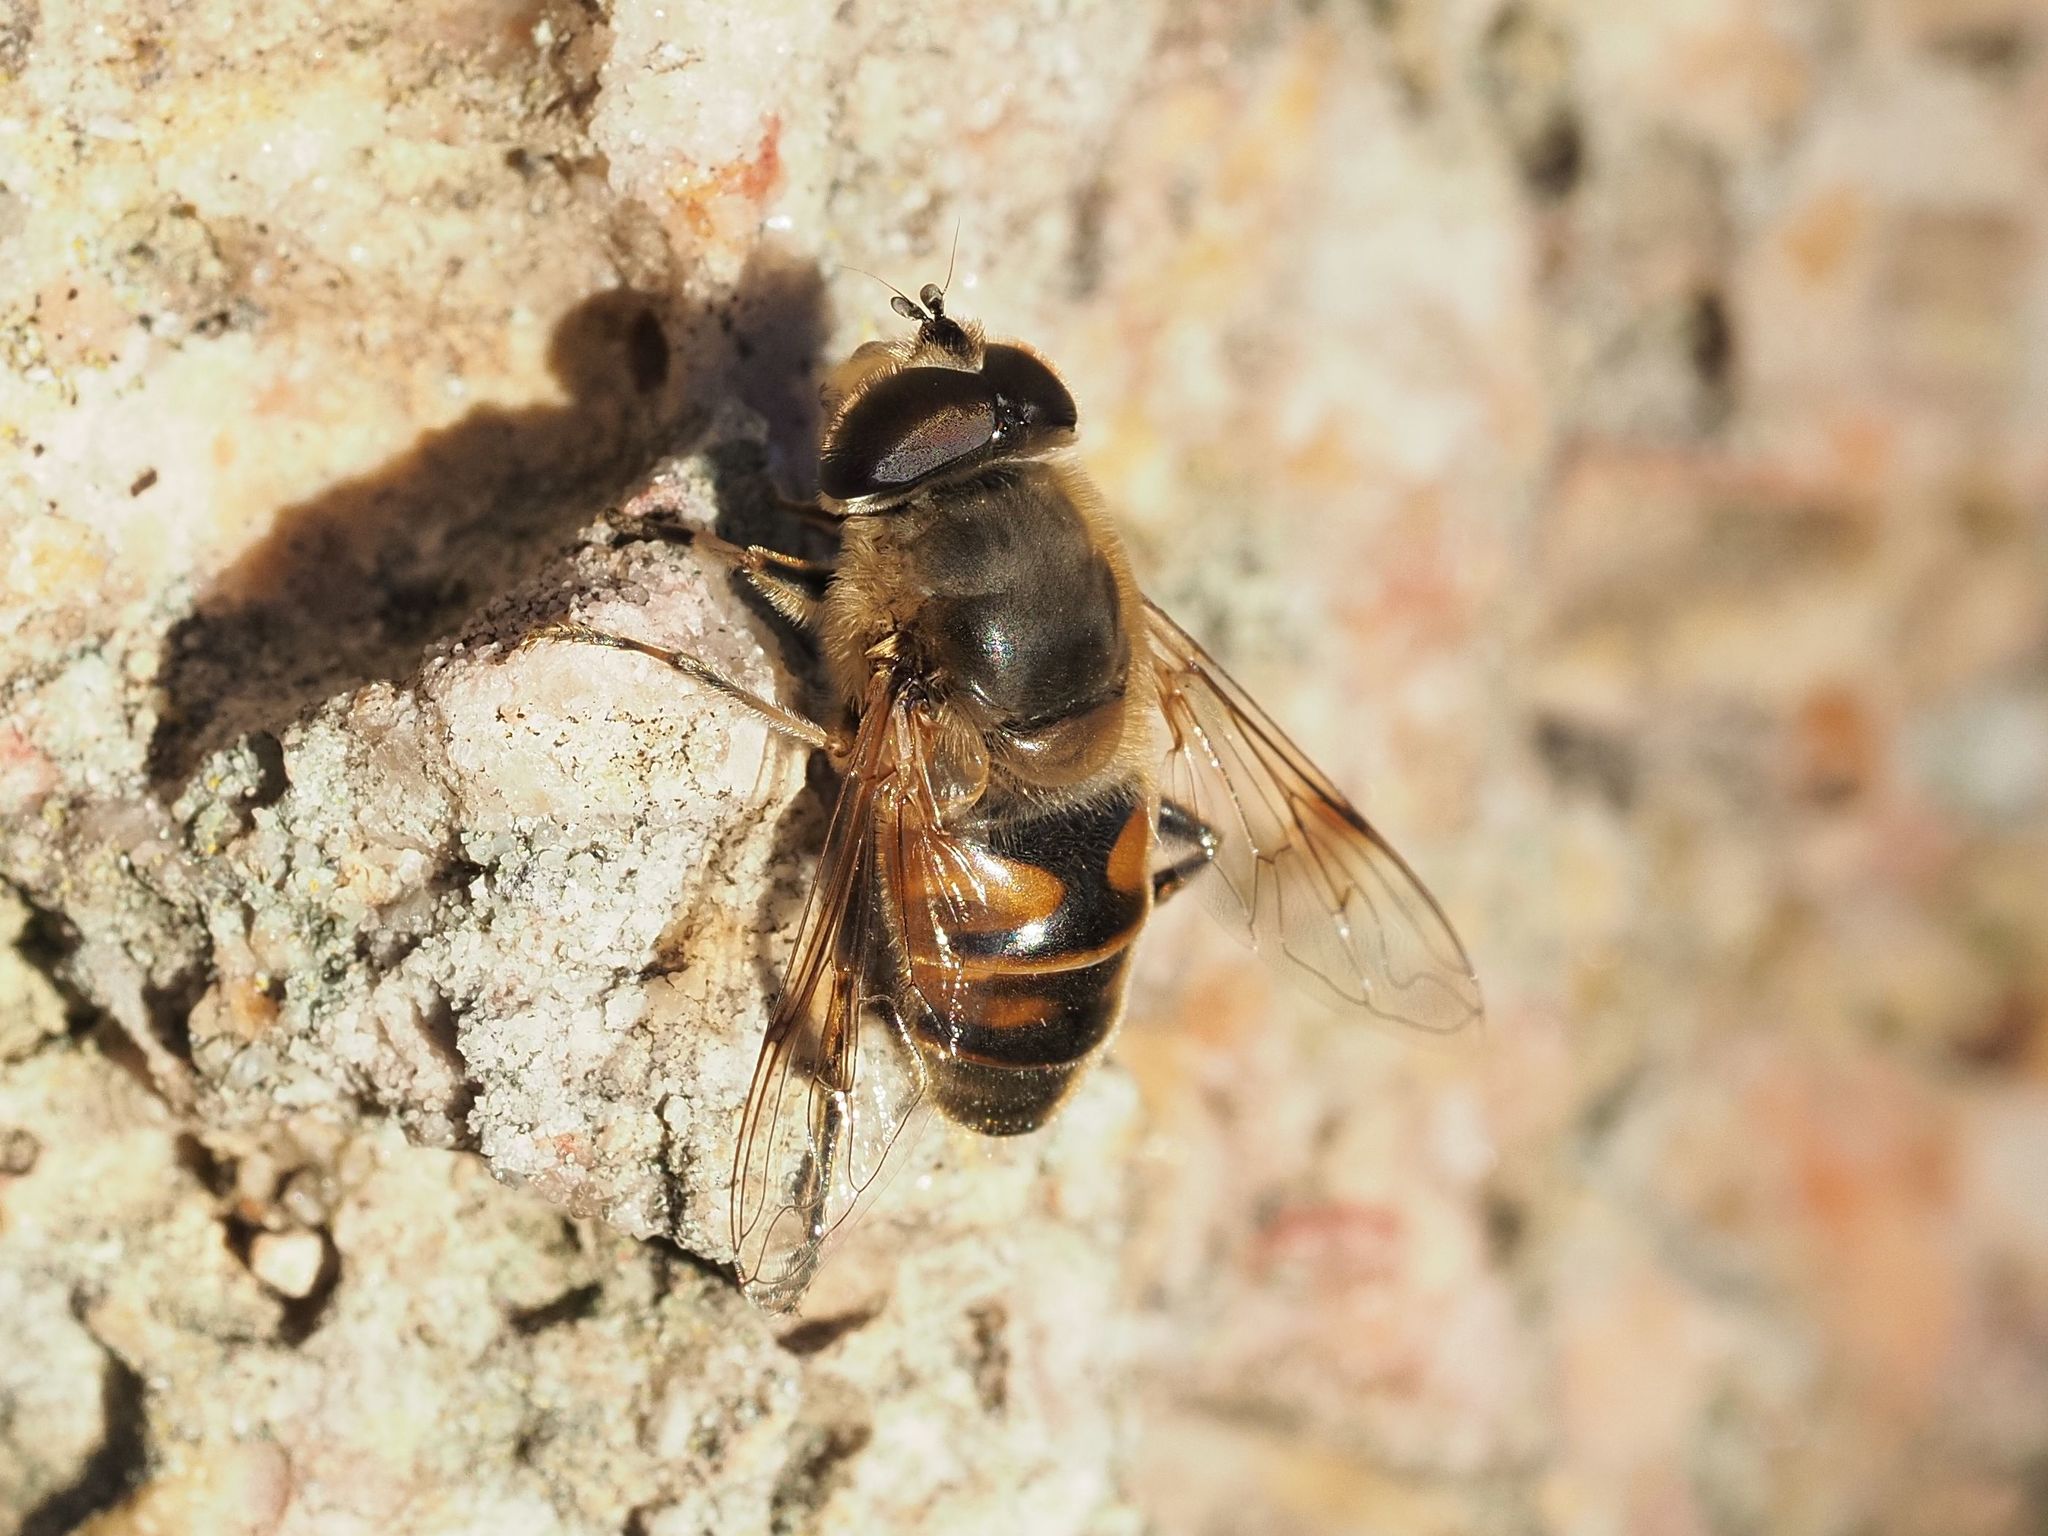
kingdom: Animalia
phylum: Arthropoda
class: Insecta
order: Diptera
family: Syrphidae
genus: Eristalis
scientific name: Eristalis tenax
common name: Drone fly
